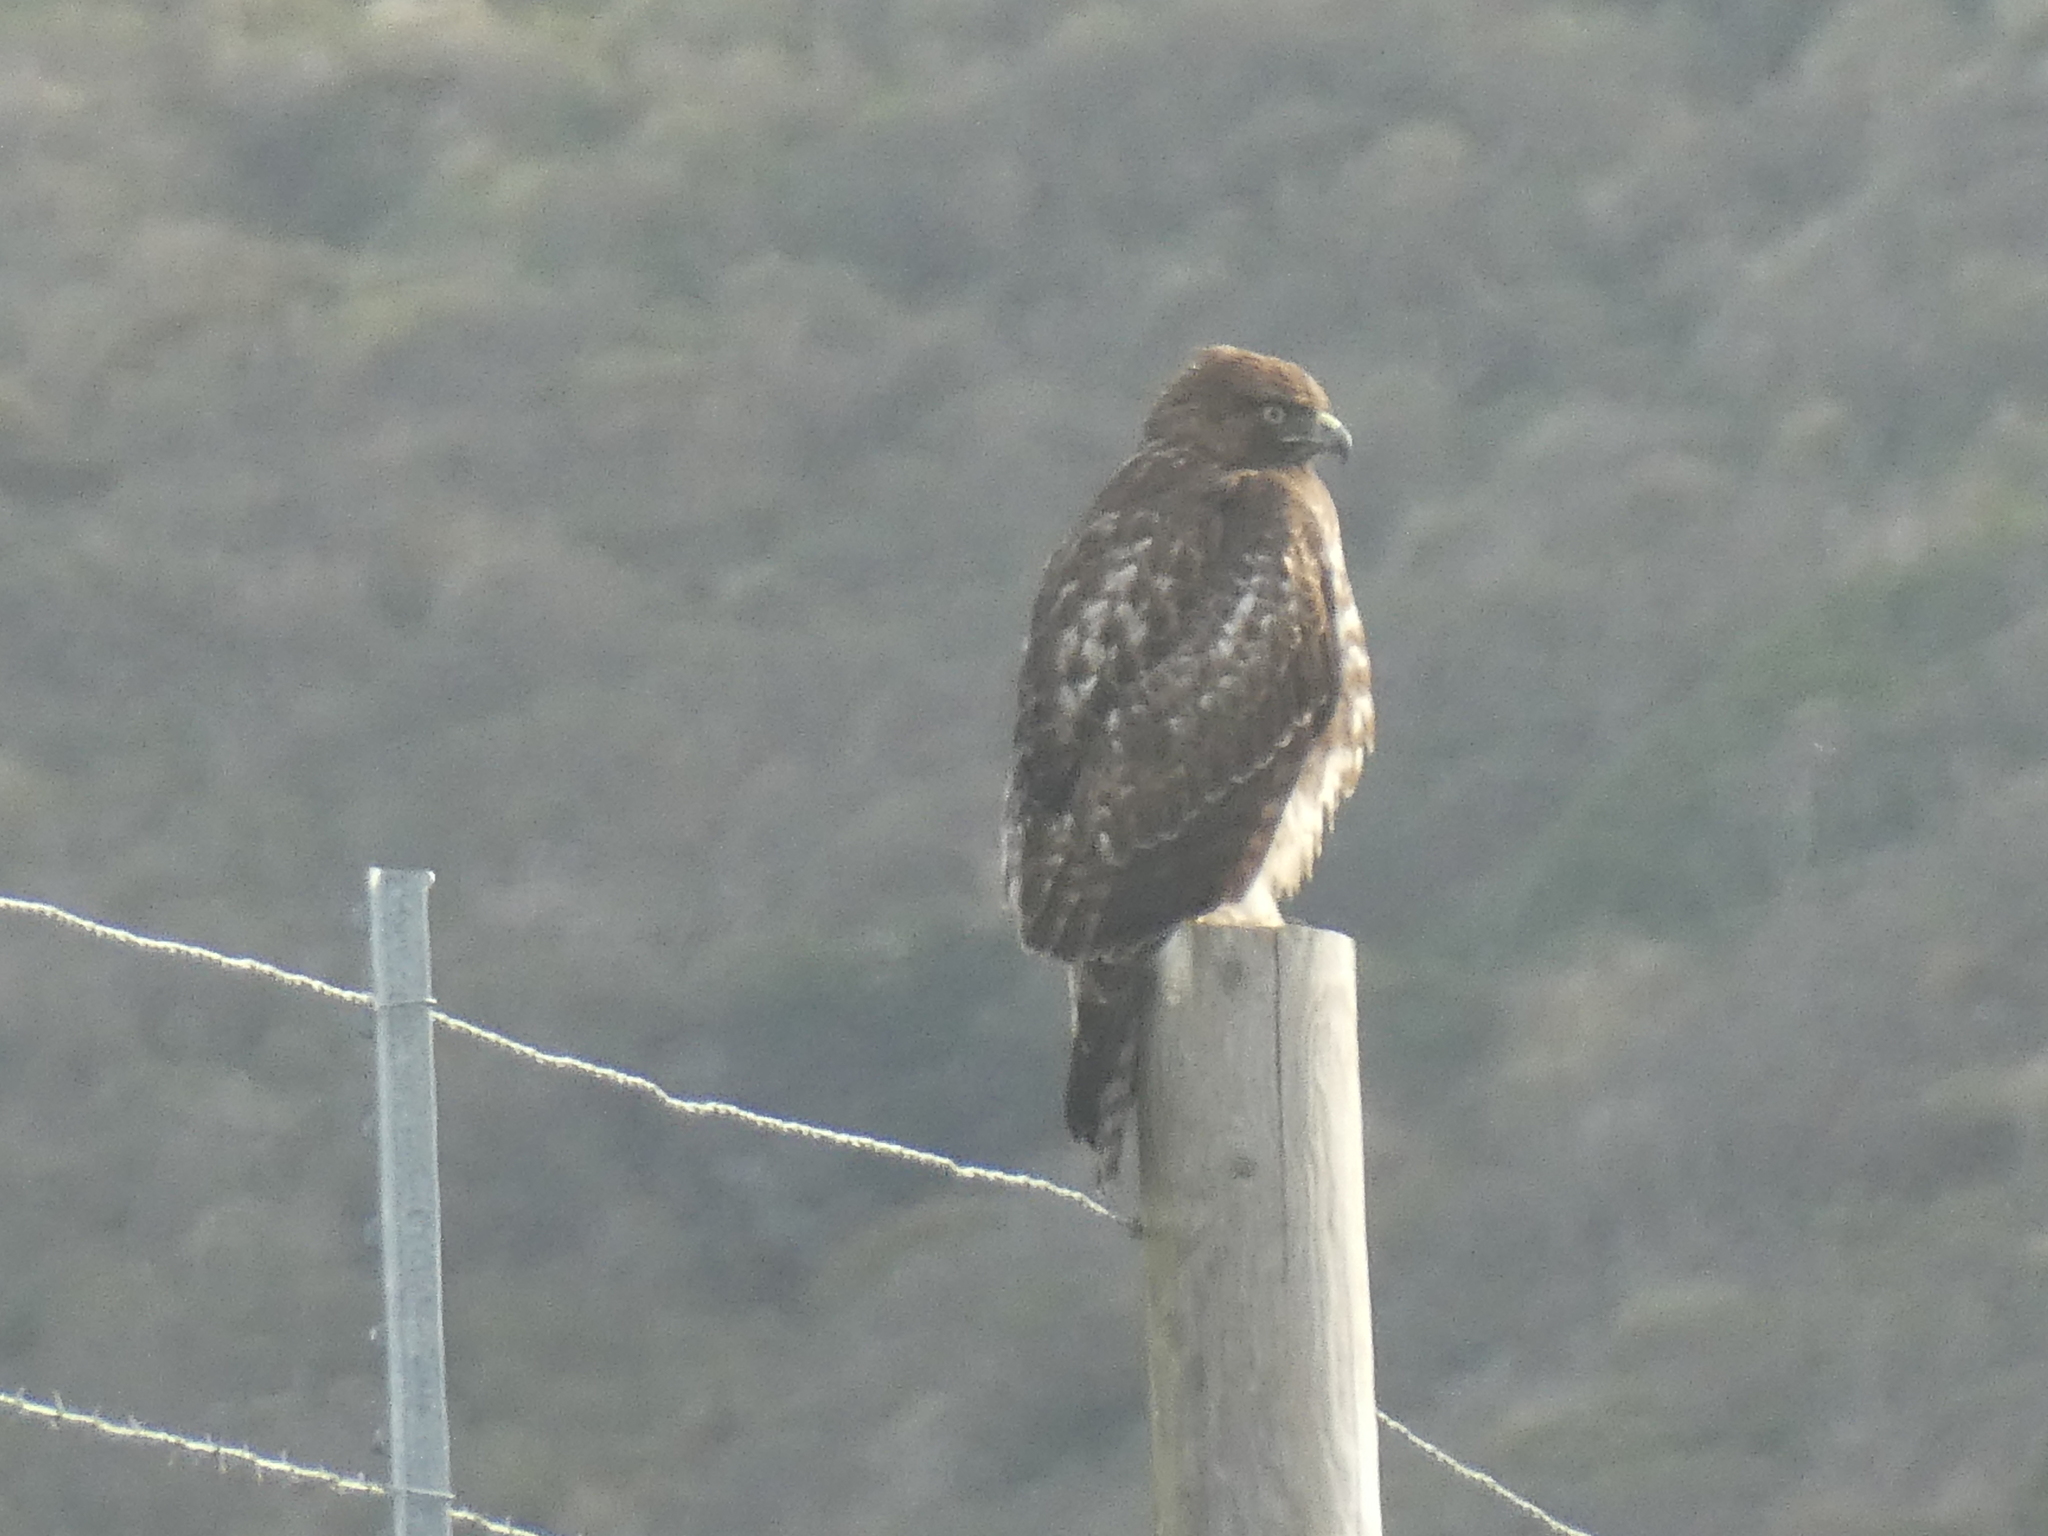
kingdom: Animalia
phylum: Chordata
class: Aves
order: Accipitriformes
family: Accipitridae
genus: Buteo
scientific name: Buteo jamaicensis
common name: Red-tailed hawk
